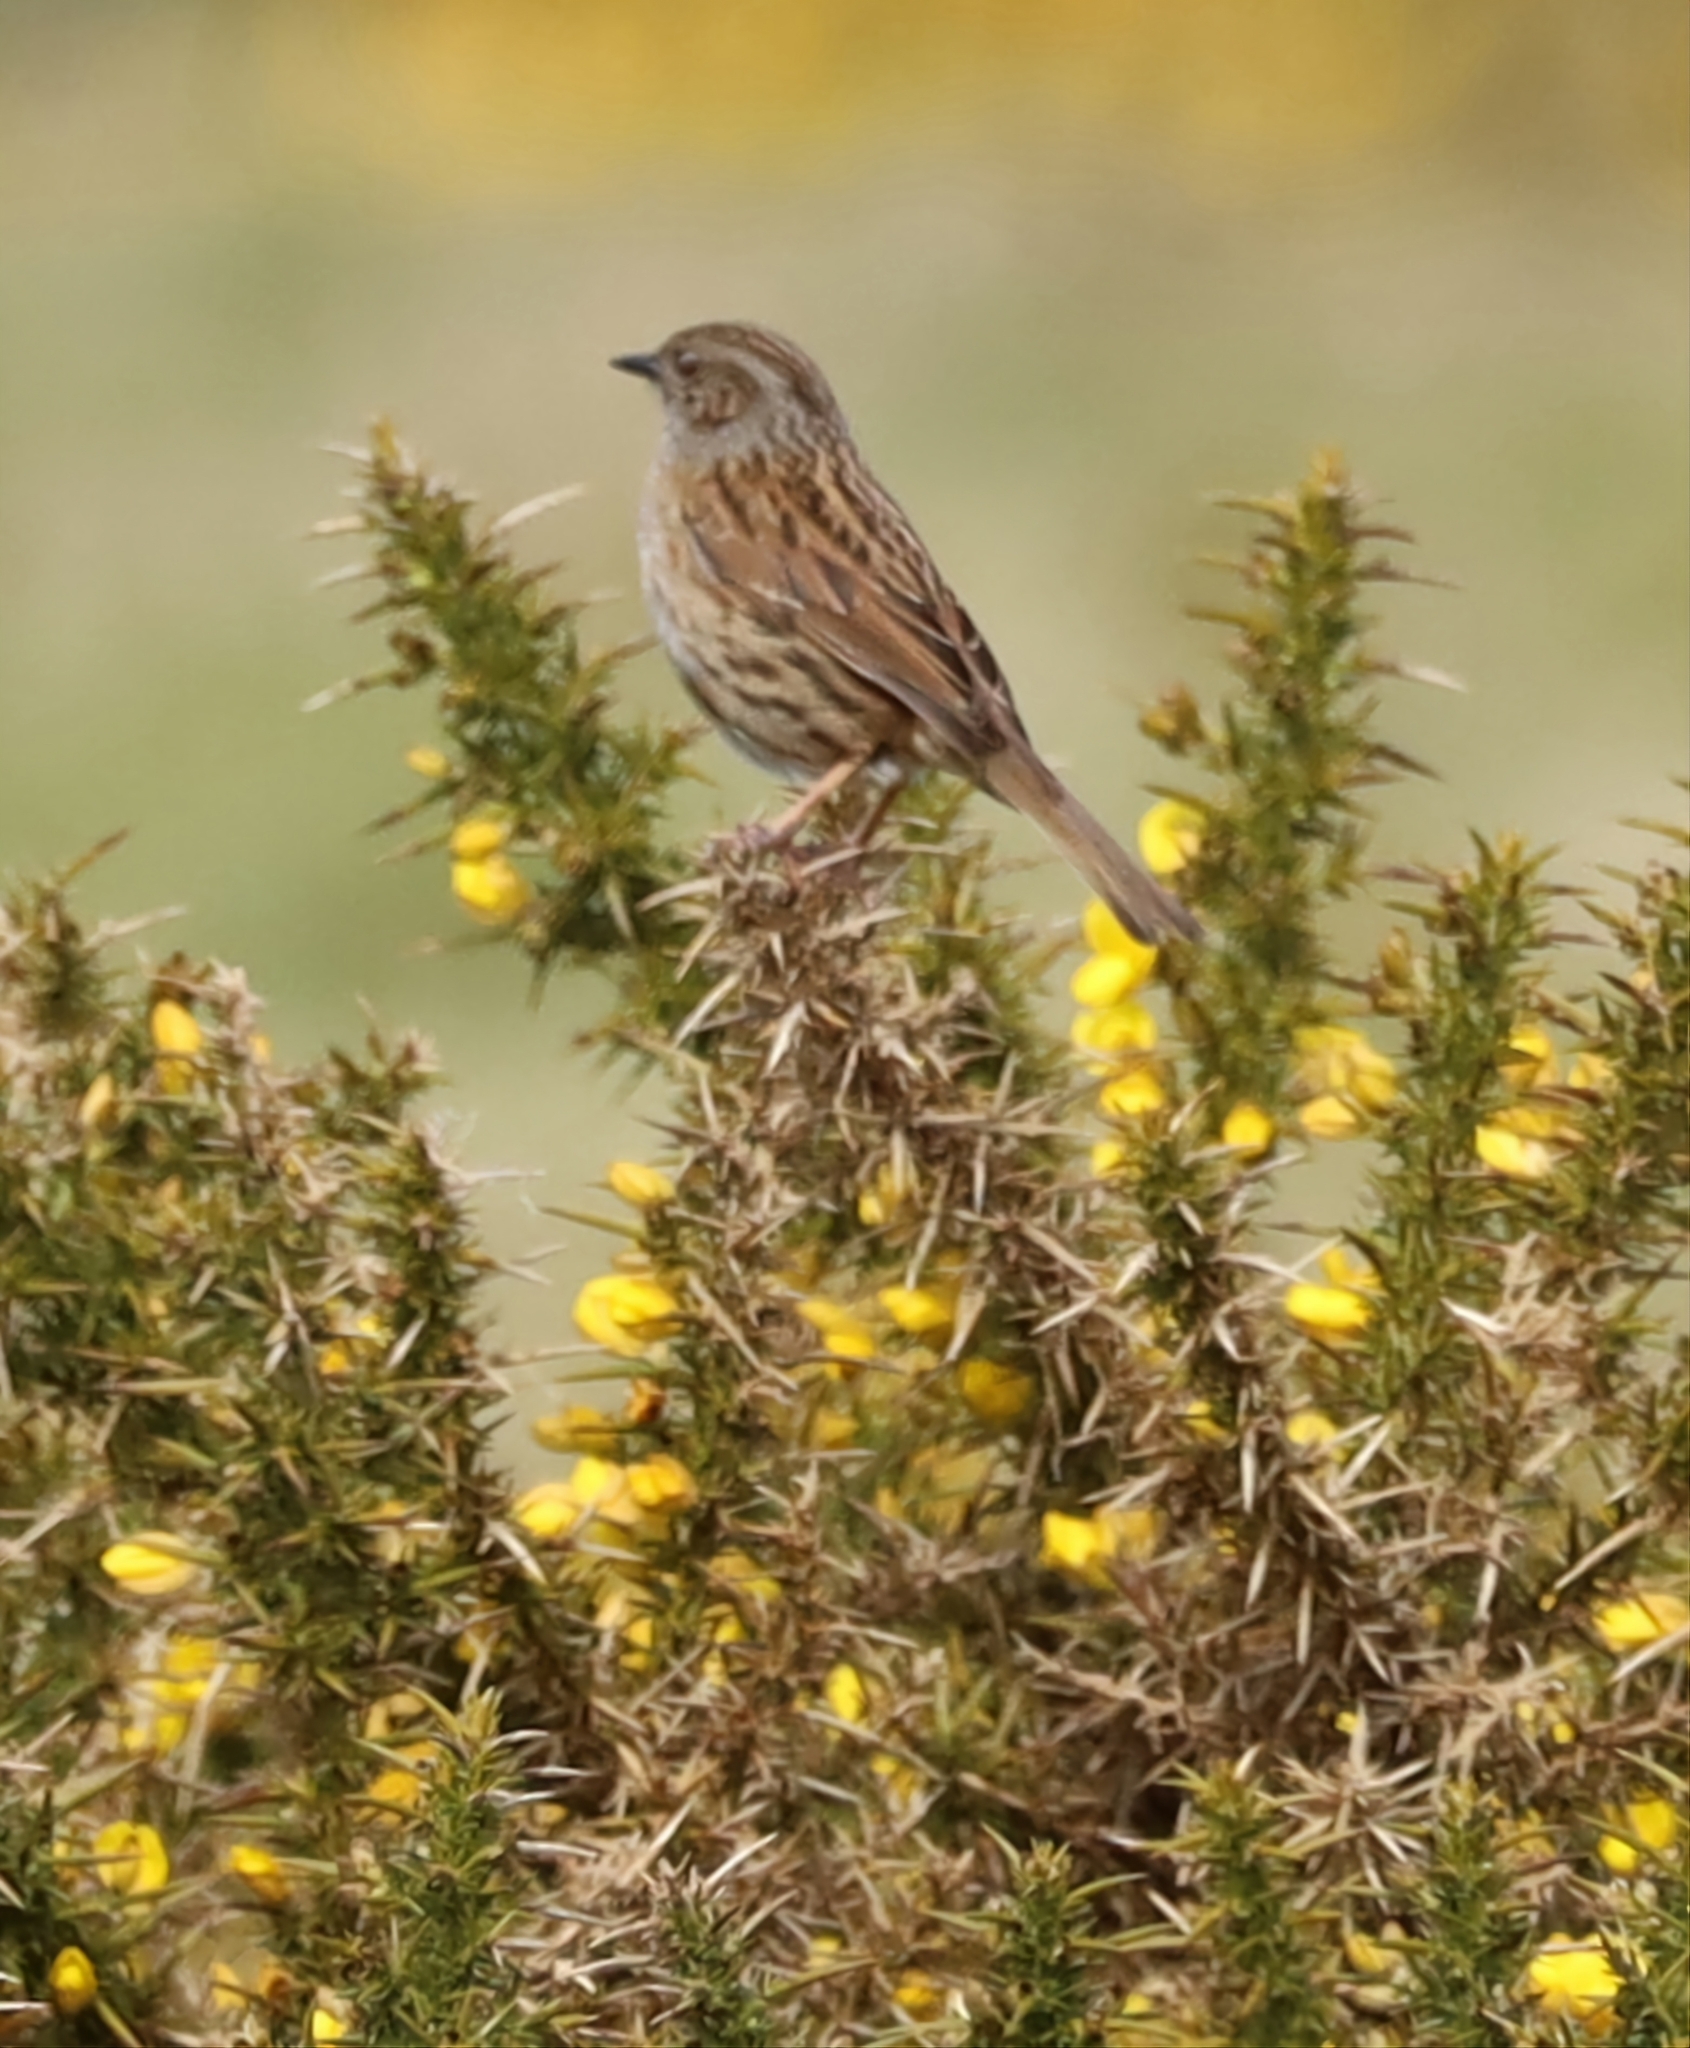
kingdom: Animalia
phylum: Chordata
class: Aves
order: Passeriformes
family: Prunellidae
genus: Prunella
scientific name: Prunella modularis
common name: Dunnock
